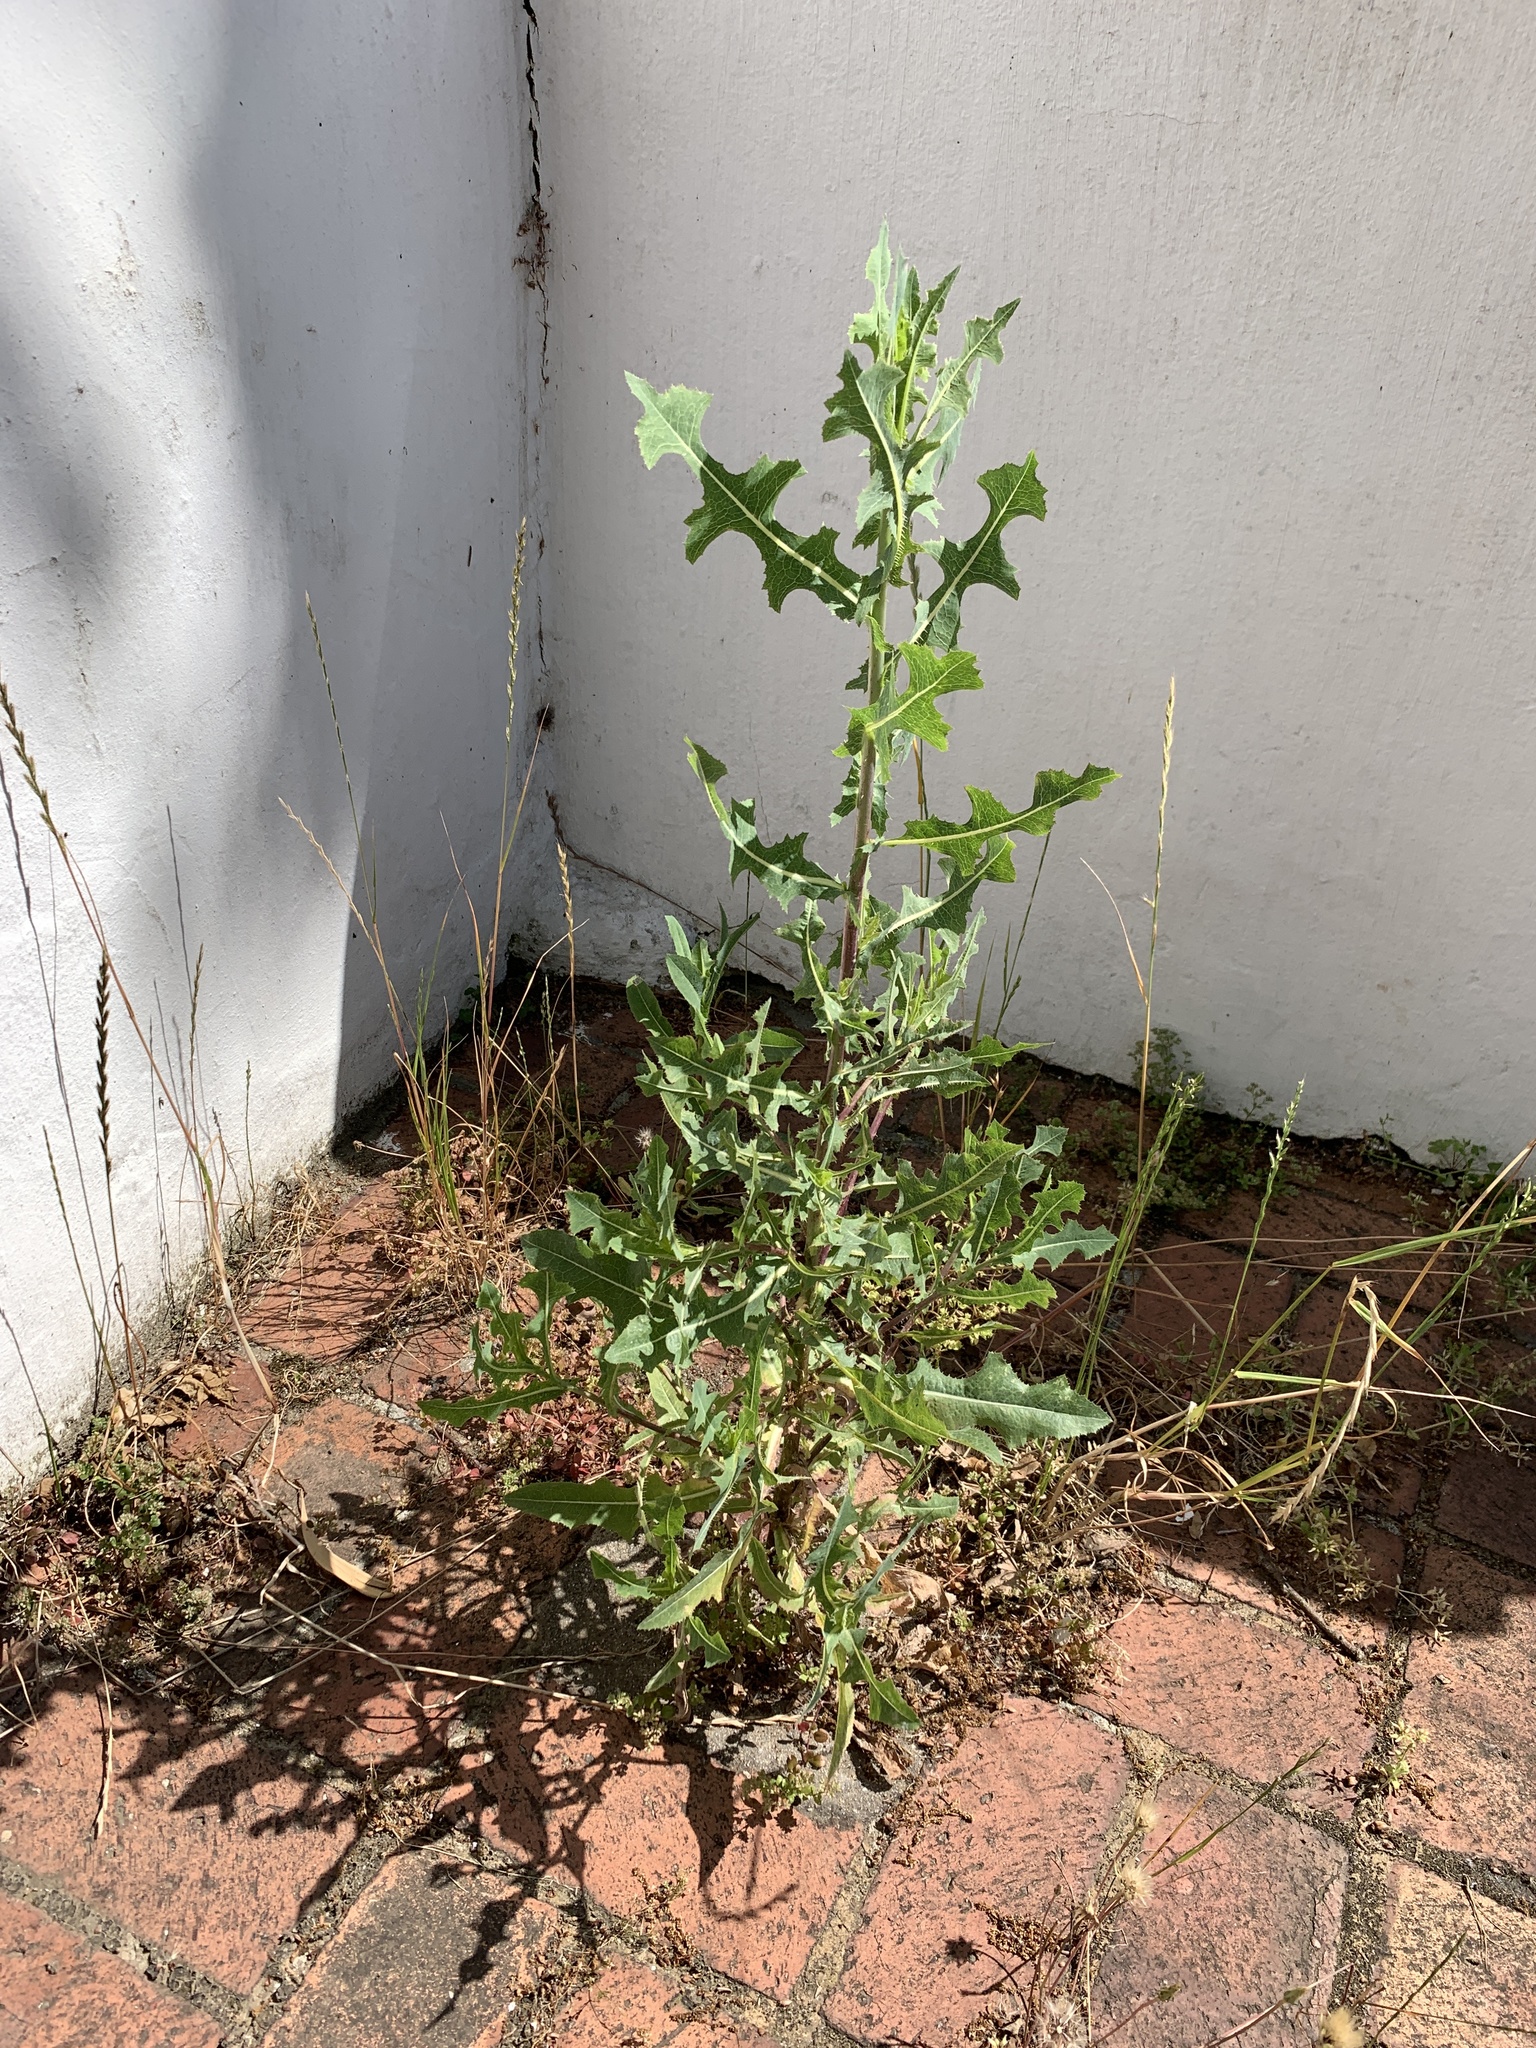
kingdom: Plantae
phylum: Tracheophyta
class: Magnoliopsida
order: Asterales
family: Asteraceae
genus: Lactuca
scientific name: Lactuca serriola
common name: Prickly lettuce
